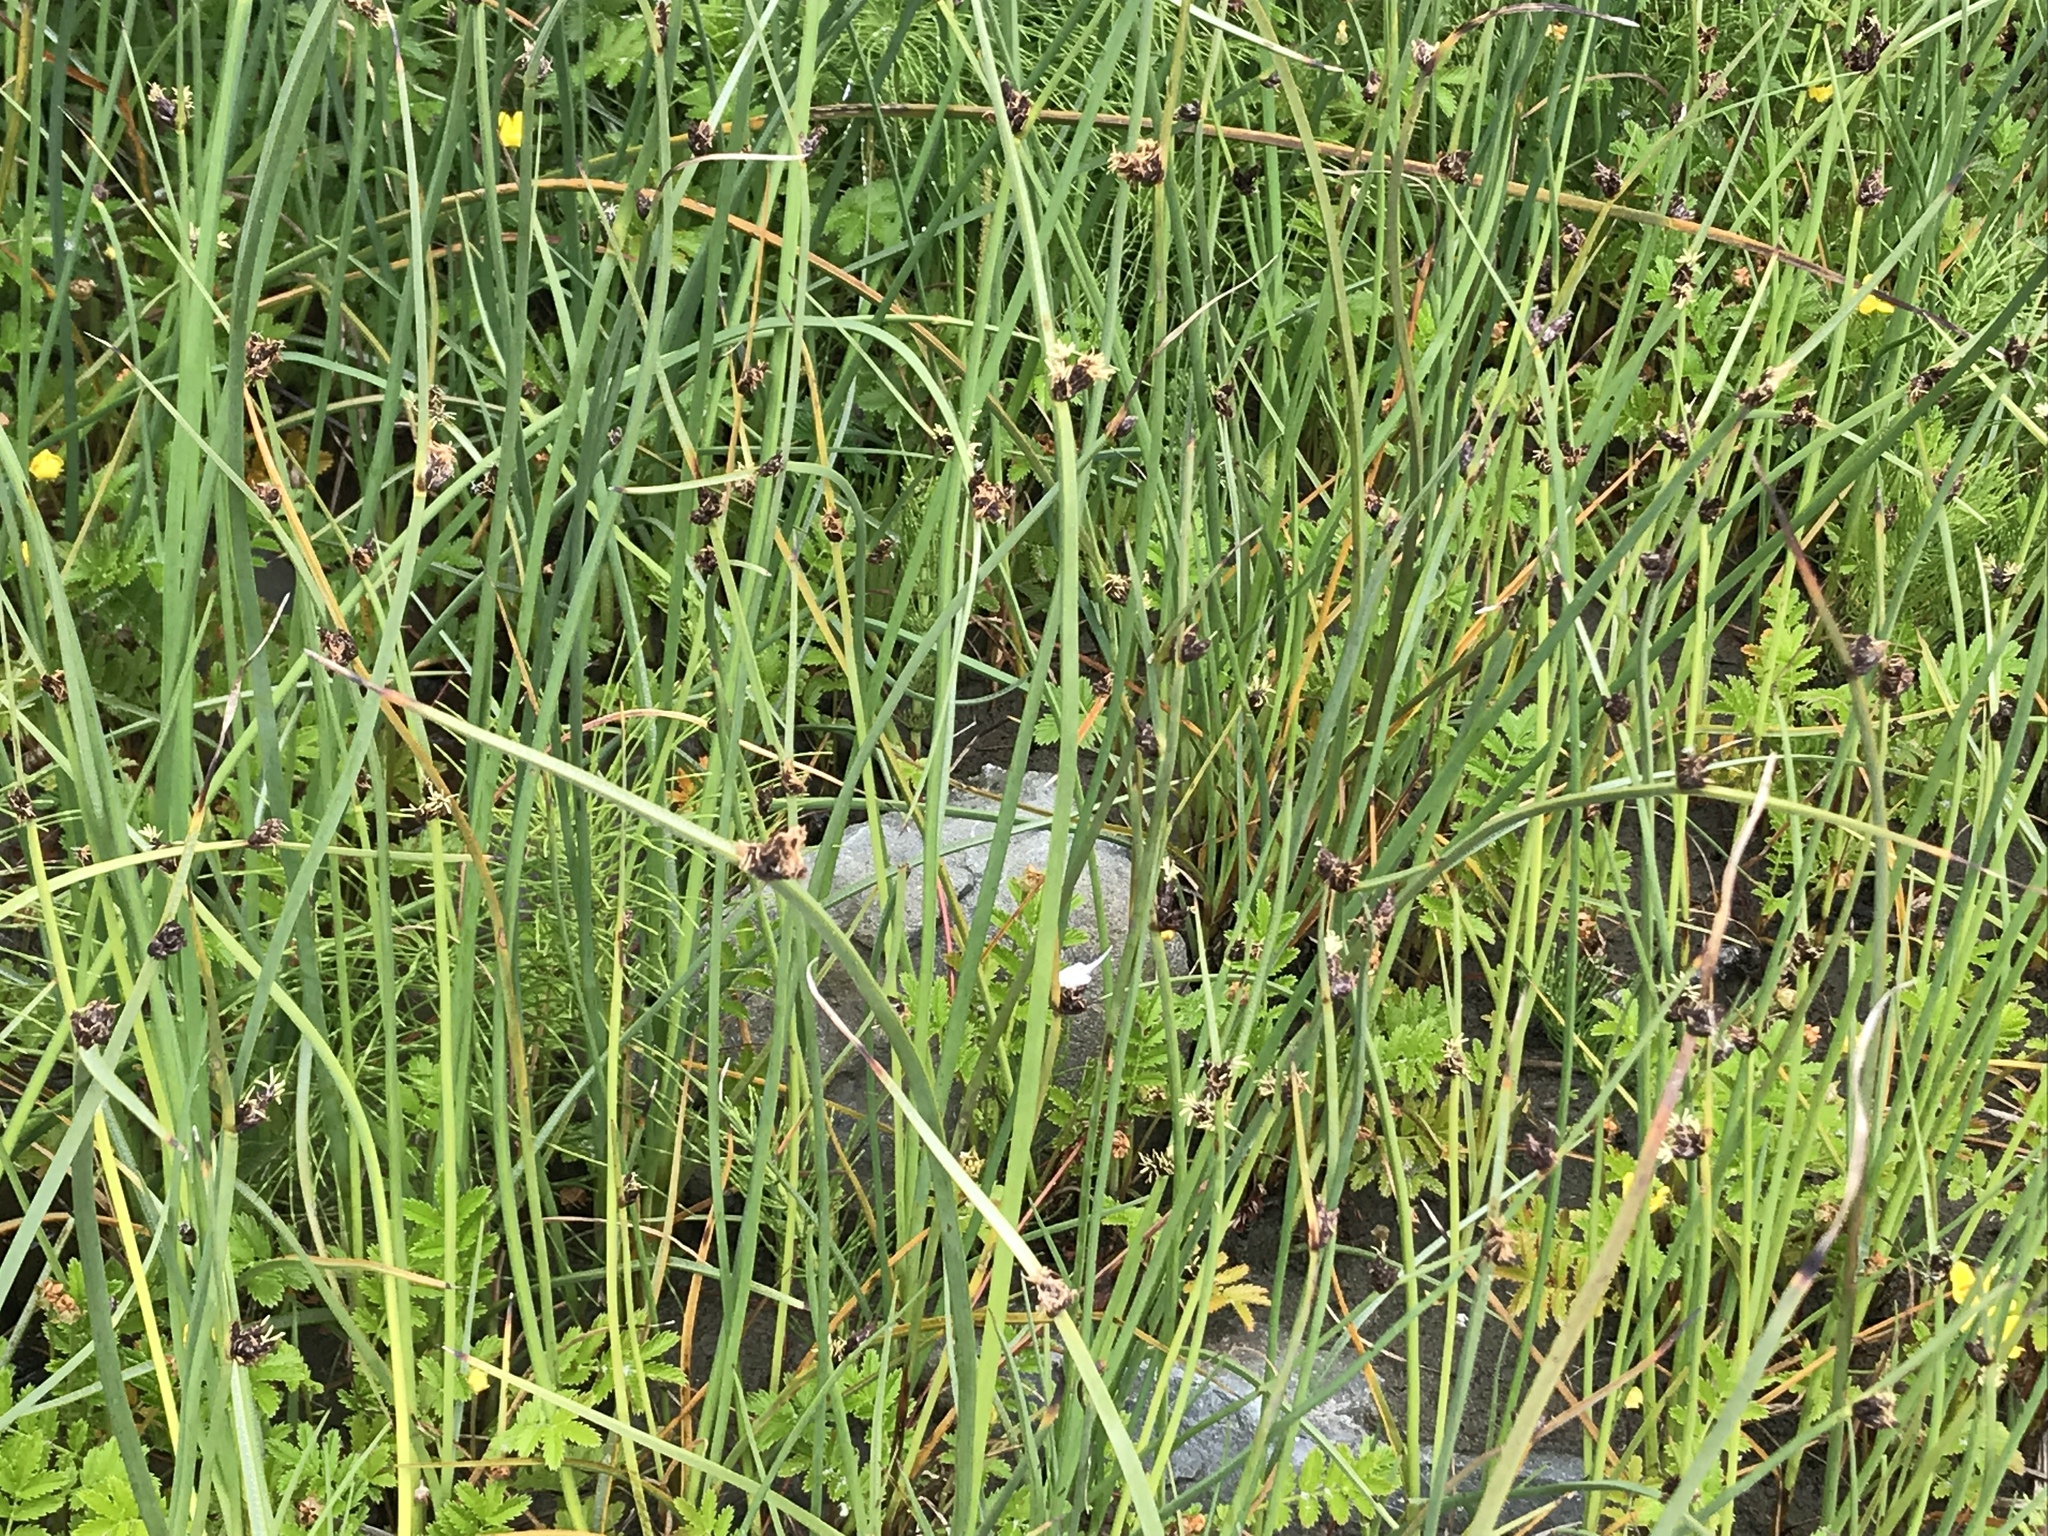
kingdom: Plantae
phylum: Tracheophyta
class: Liliopsida
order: Poales
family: Cyperaceae
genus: Schoenoplectus
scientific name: Schoenoplectus pungens
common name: Sharp club-rush
